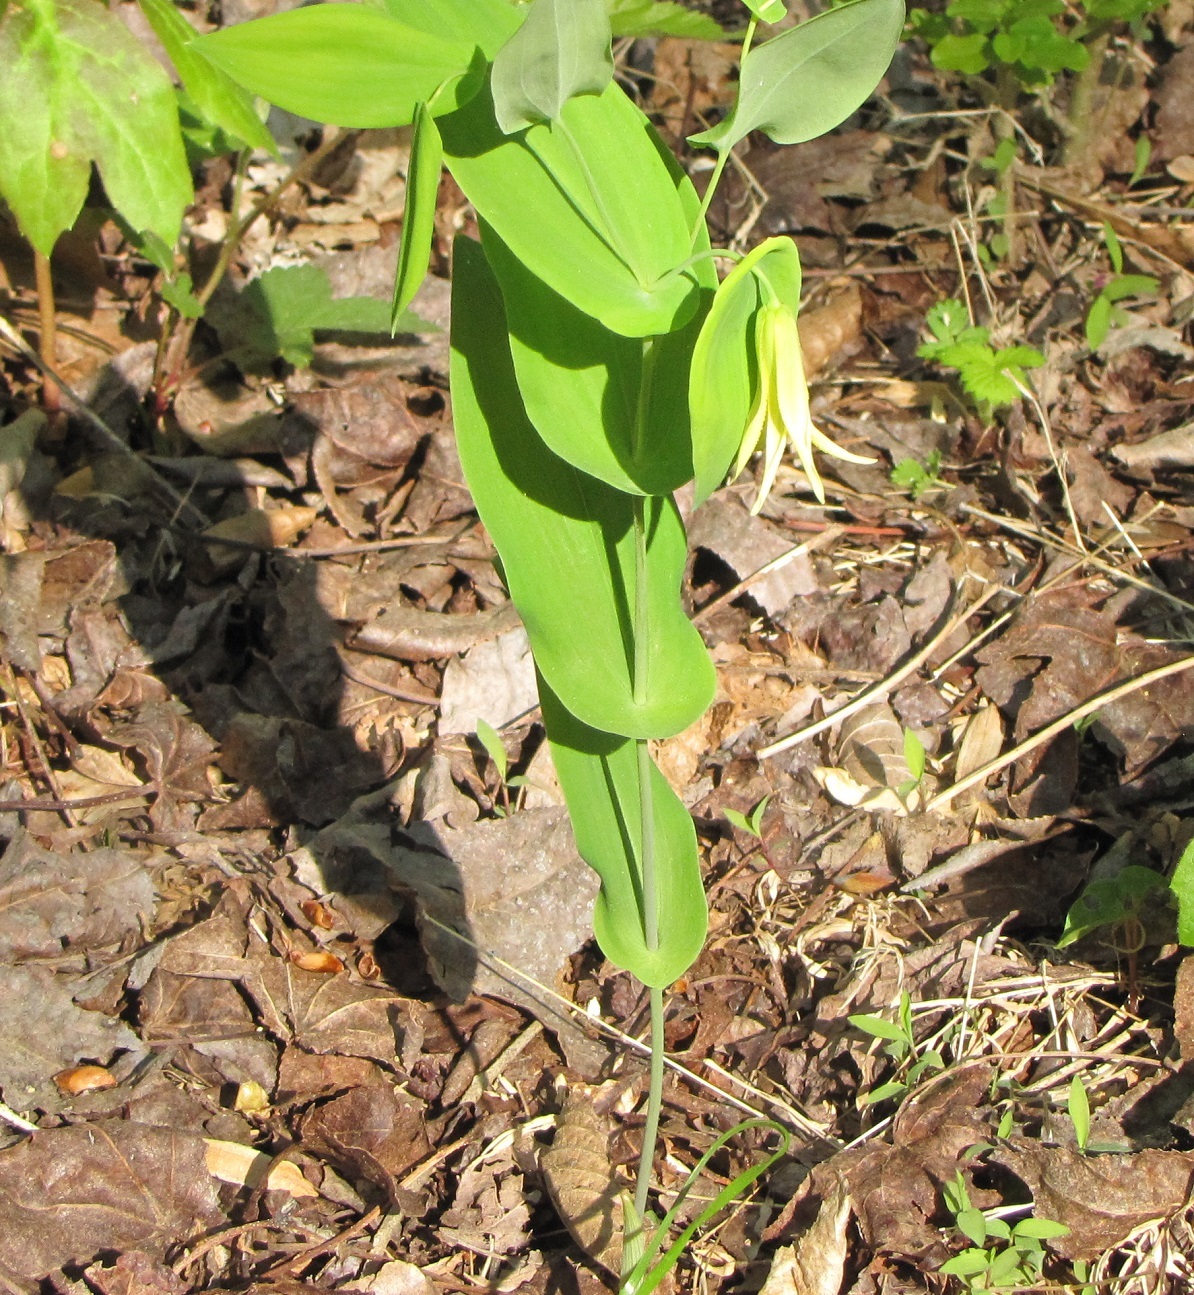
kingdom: Plantae
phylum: Tracheophyta
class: Liliopsida
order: Liliales
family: Colchicaceae
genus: Uvularia
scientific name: Uvularia perfoliata
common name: Perfoliate bellwort
